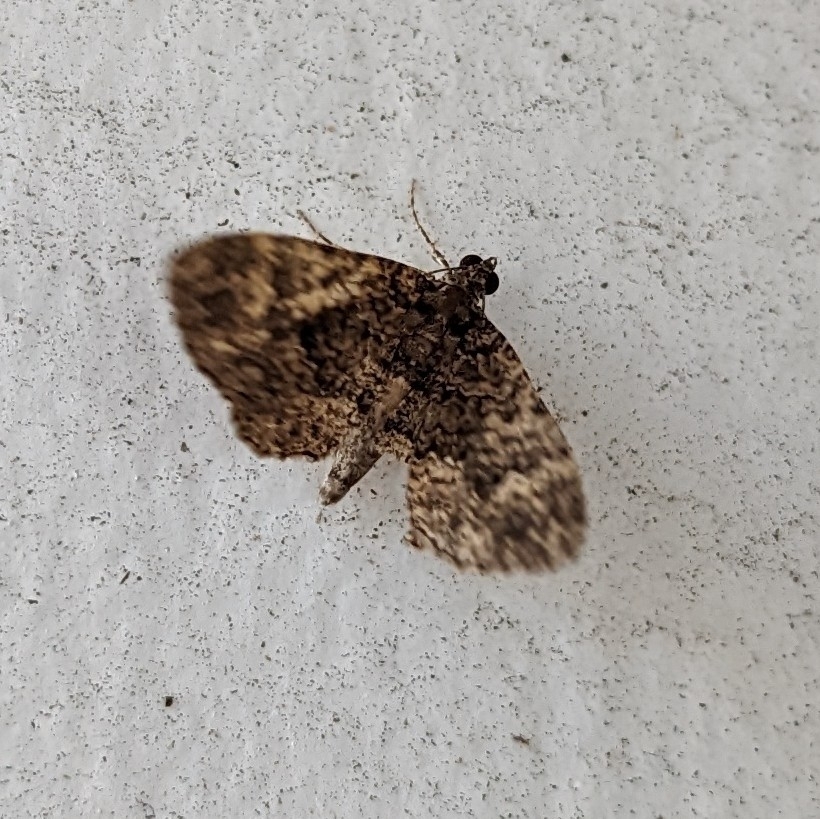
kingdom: Animalia
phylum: Arthropoda
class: Insecta
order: Lepidoptera
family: Geometridae
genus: Disclisioprocta
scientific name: Disclisioprocta stellata
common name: Somber carpet
